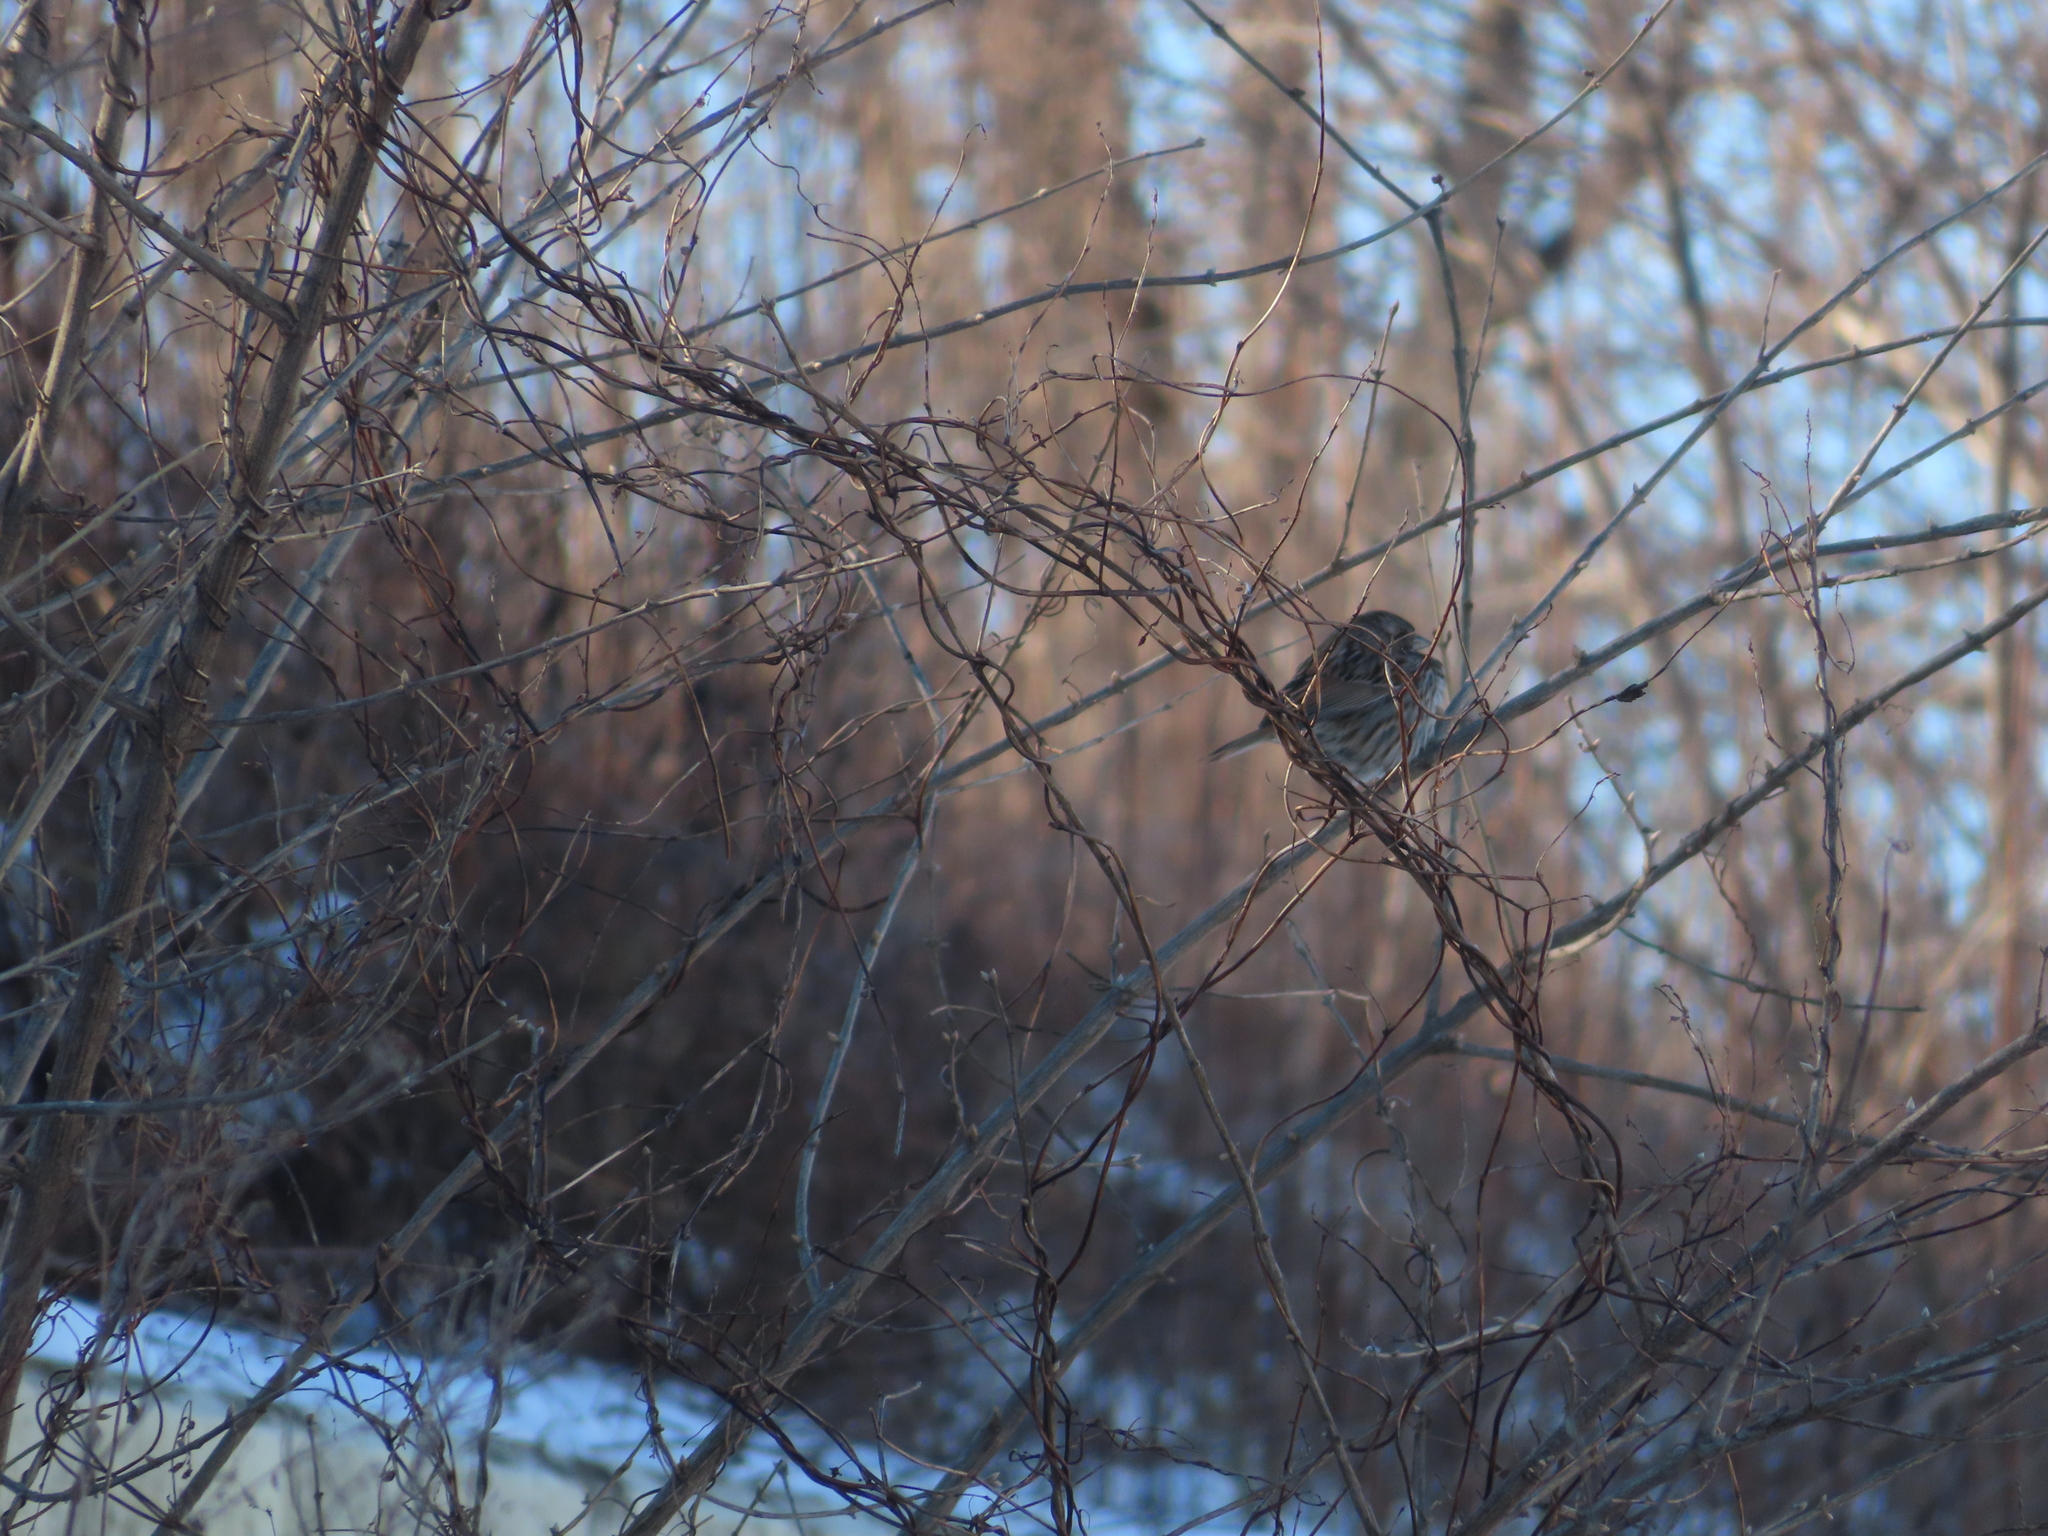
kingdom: Animalia
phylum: Chordata
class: Aves
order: Passeriformes
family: Passerellidae
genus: Melospiza
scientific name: Melospiza melodia
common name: Song sparrow
